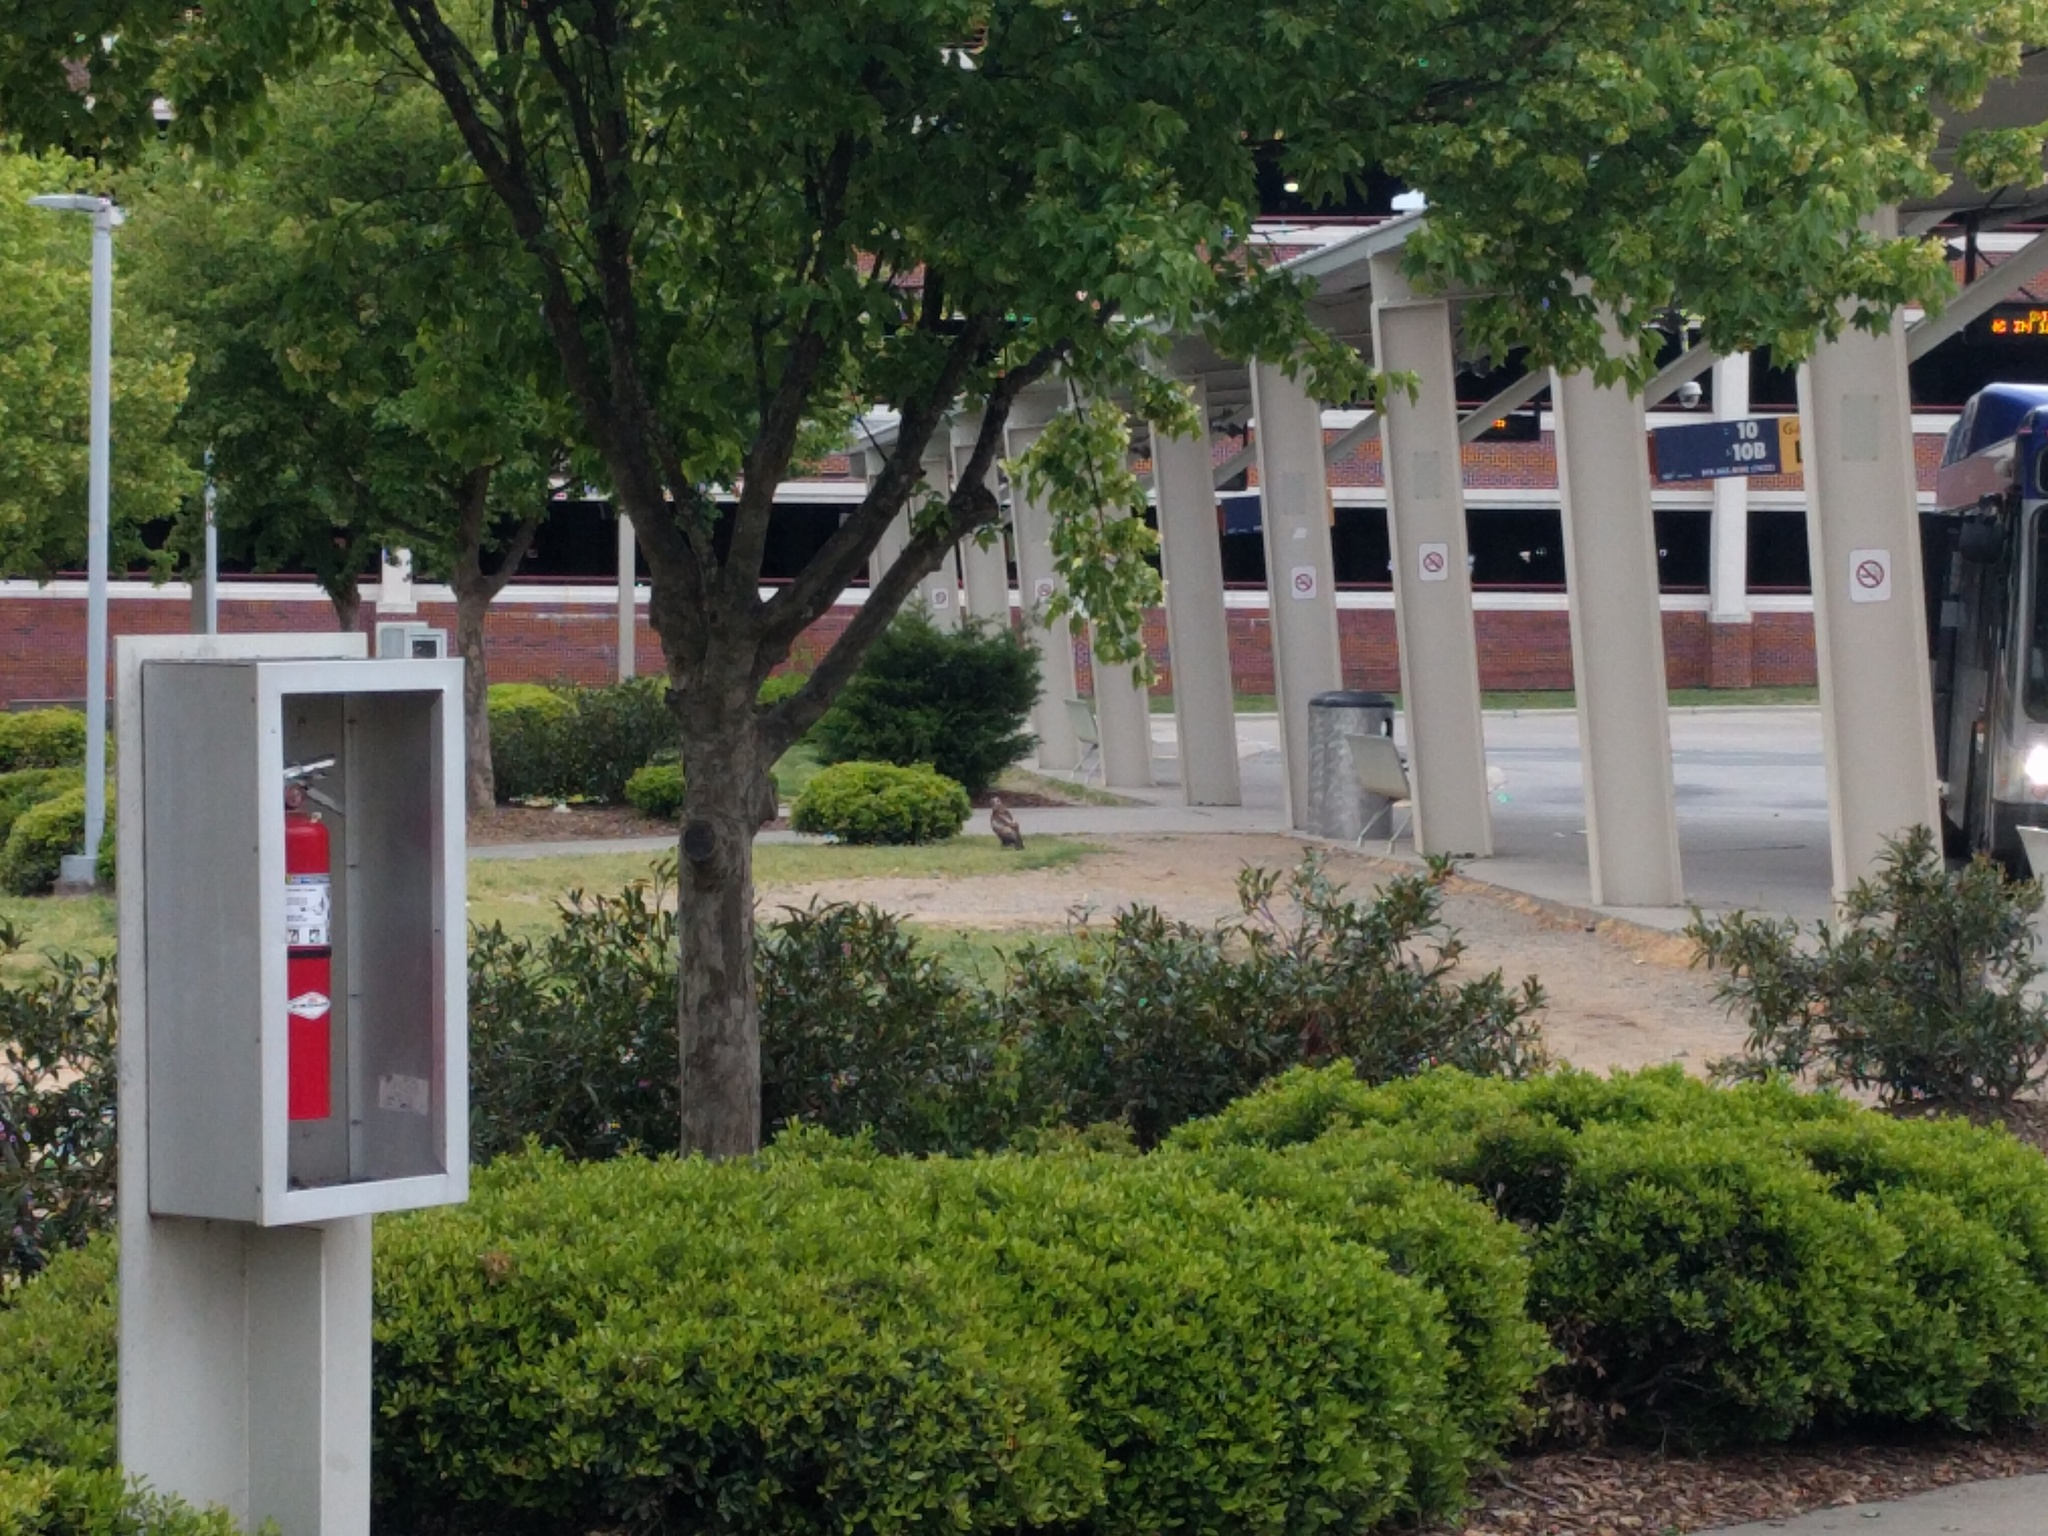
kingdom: Animalia
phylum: Chordata
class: Aves
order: Accipitriformes
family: Accipitridae
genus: Buteo
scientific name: Buteo jamaicensis
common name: Red-tailed hawk
